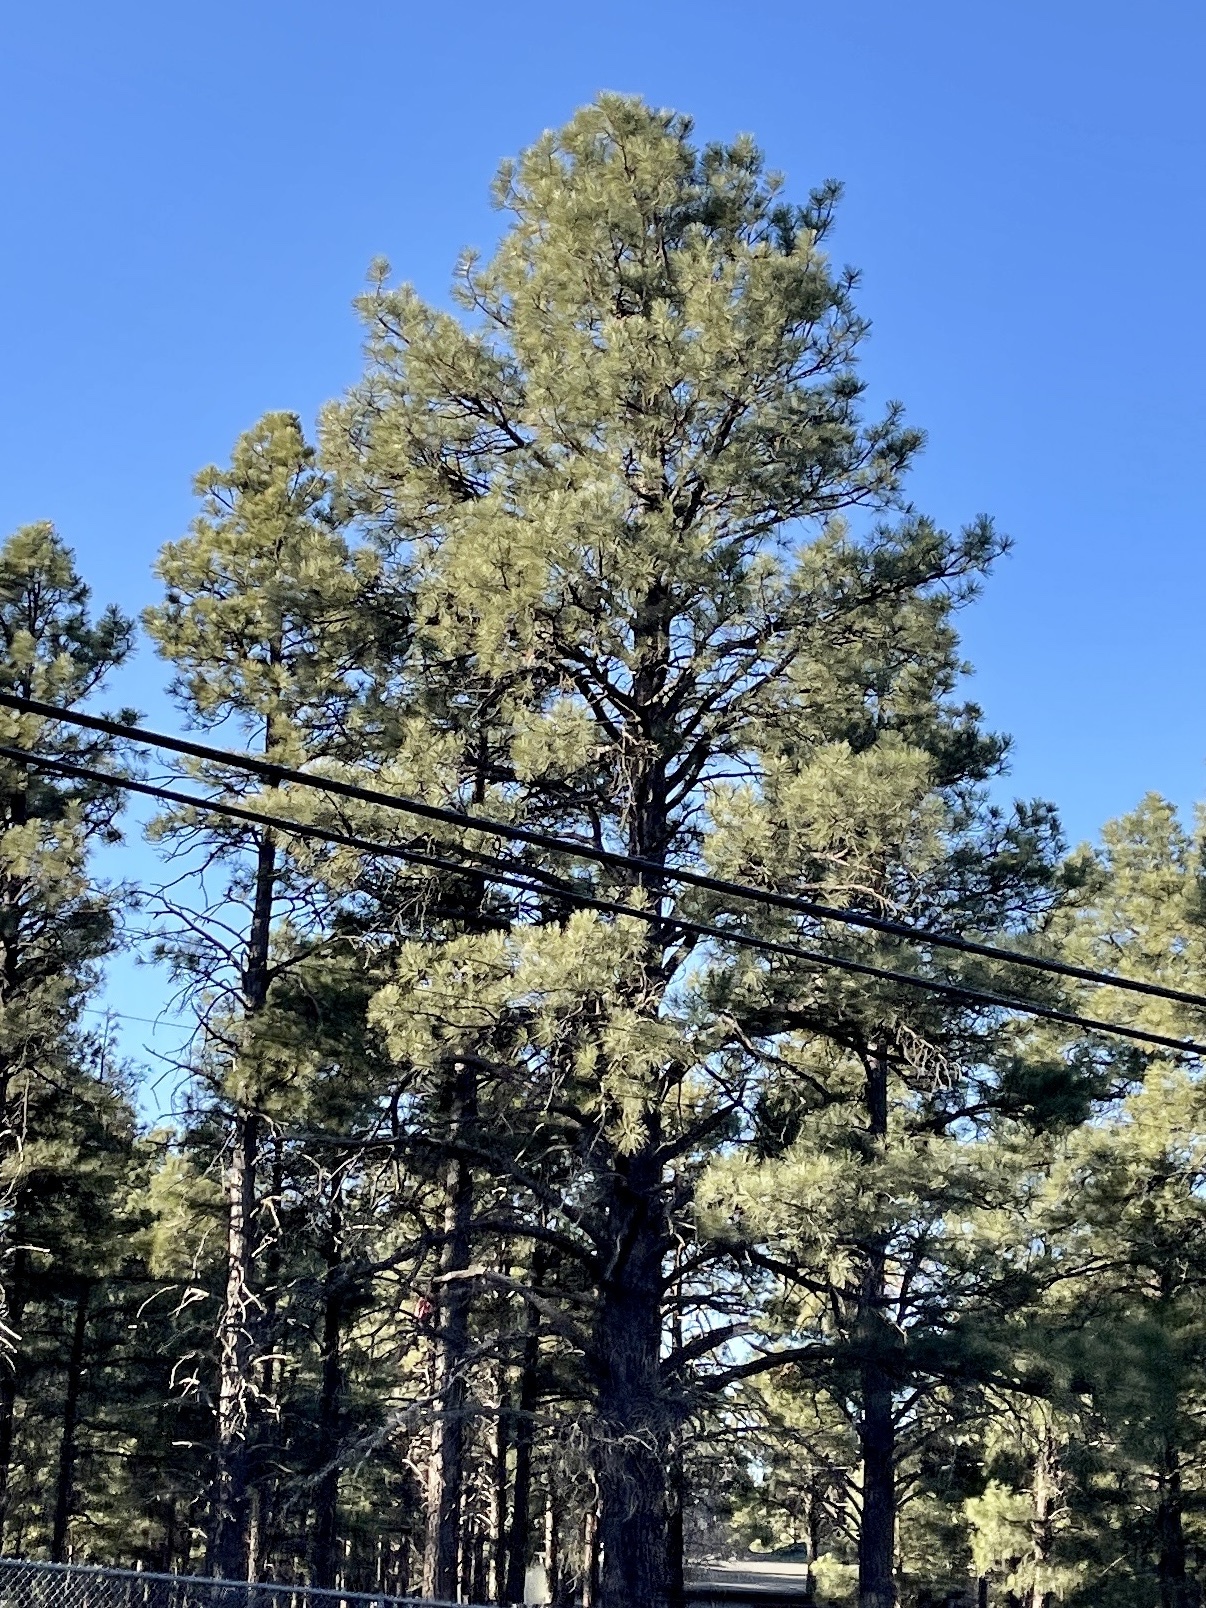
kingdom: Plantae
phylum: Tracheophyta
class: Pinopsida
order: Pinales
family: Pinaceae
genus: Pinus
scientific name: Pinus ponderosa
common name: Western yellow-pine
